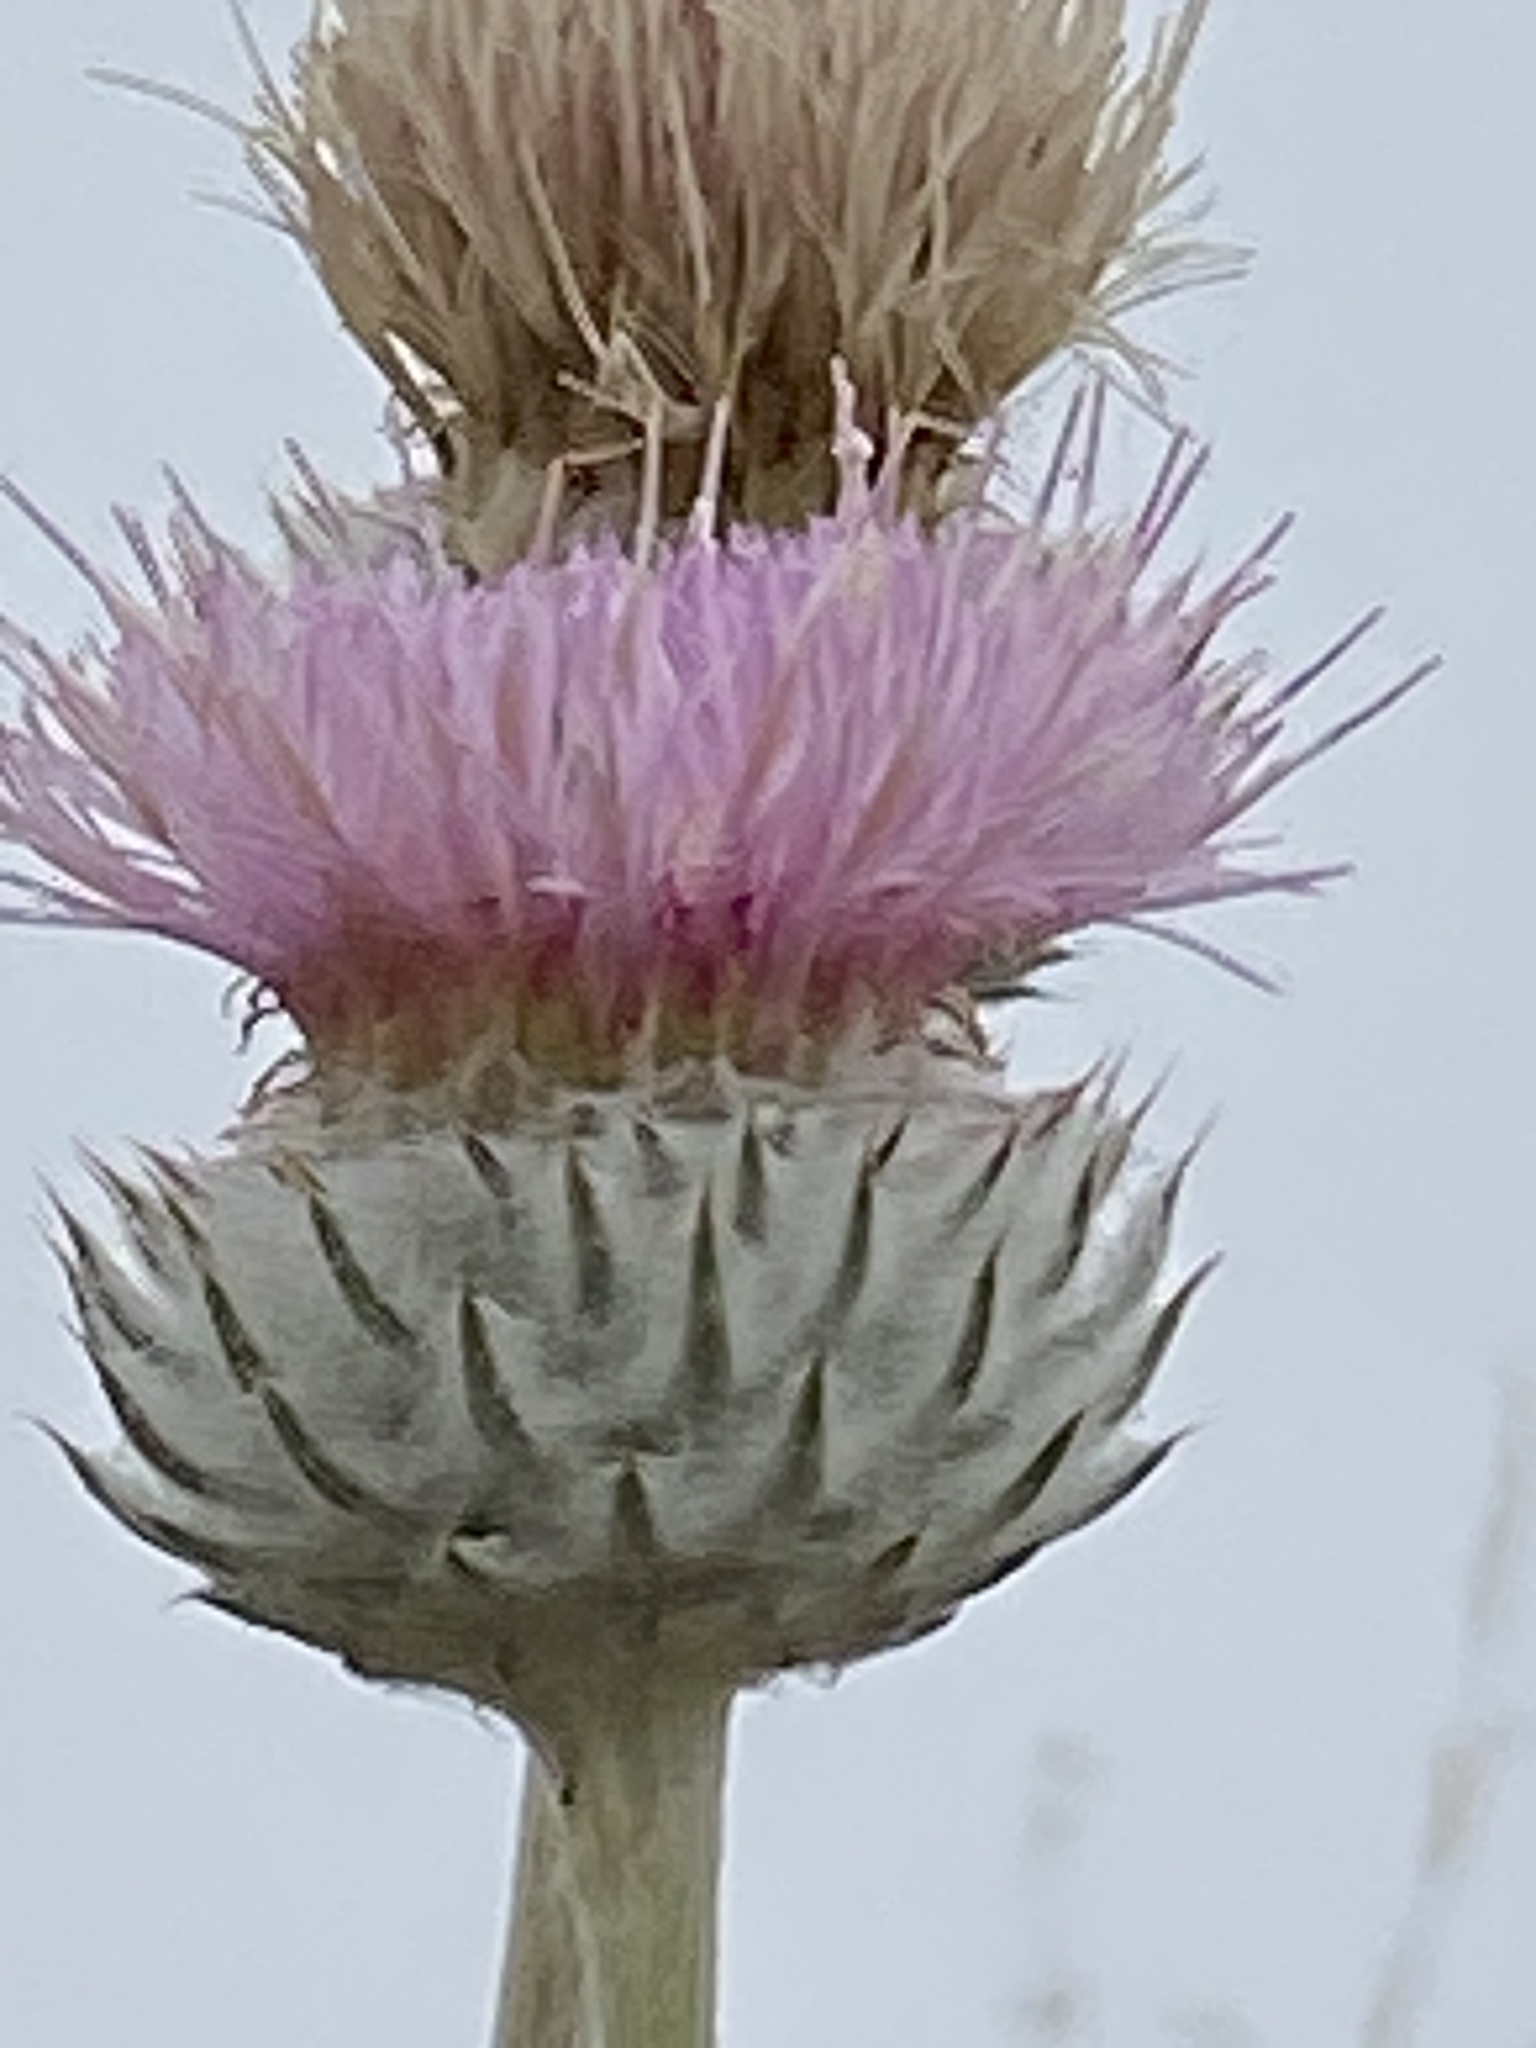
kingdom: Plantae
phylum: Tracheophyta
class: Magnoliopsida
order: Asterales
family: Asteraceae
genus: Cirsium
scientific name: Cirsium occidentale
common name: Western thistle
